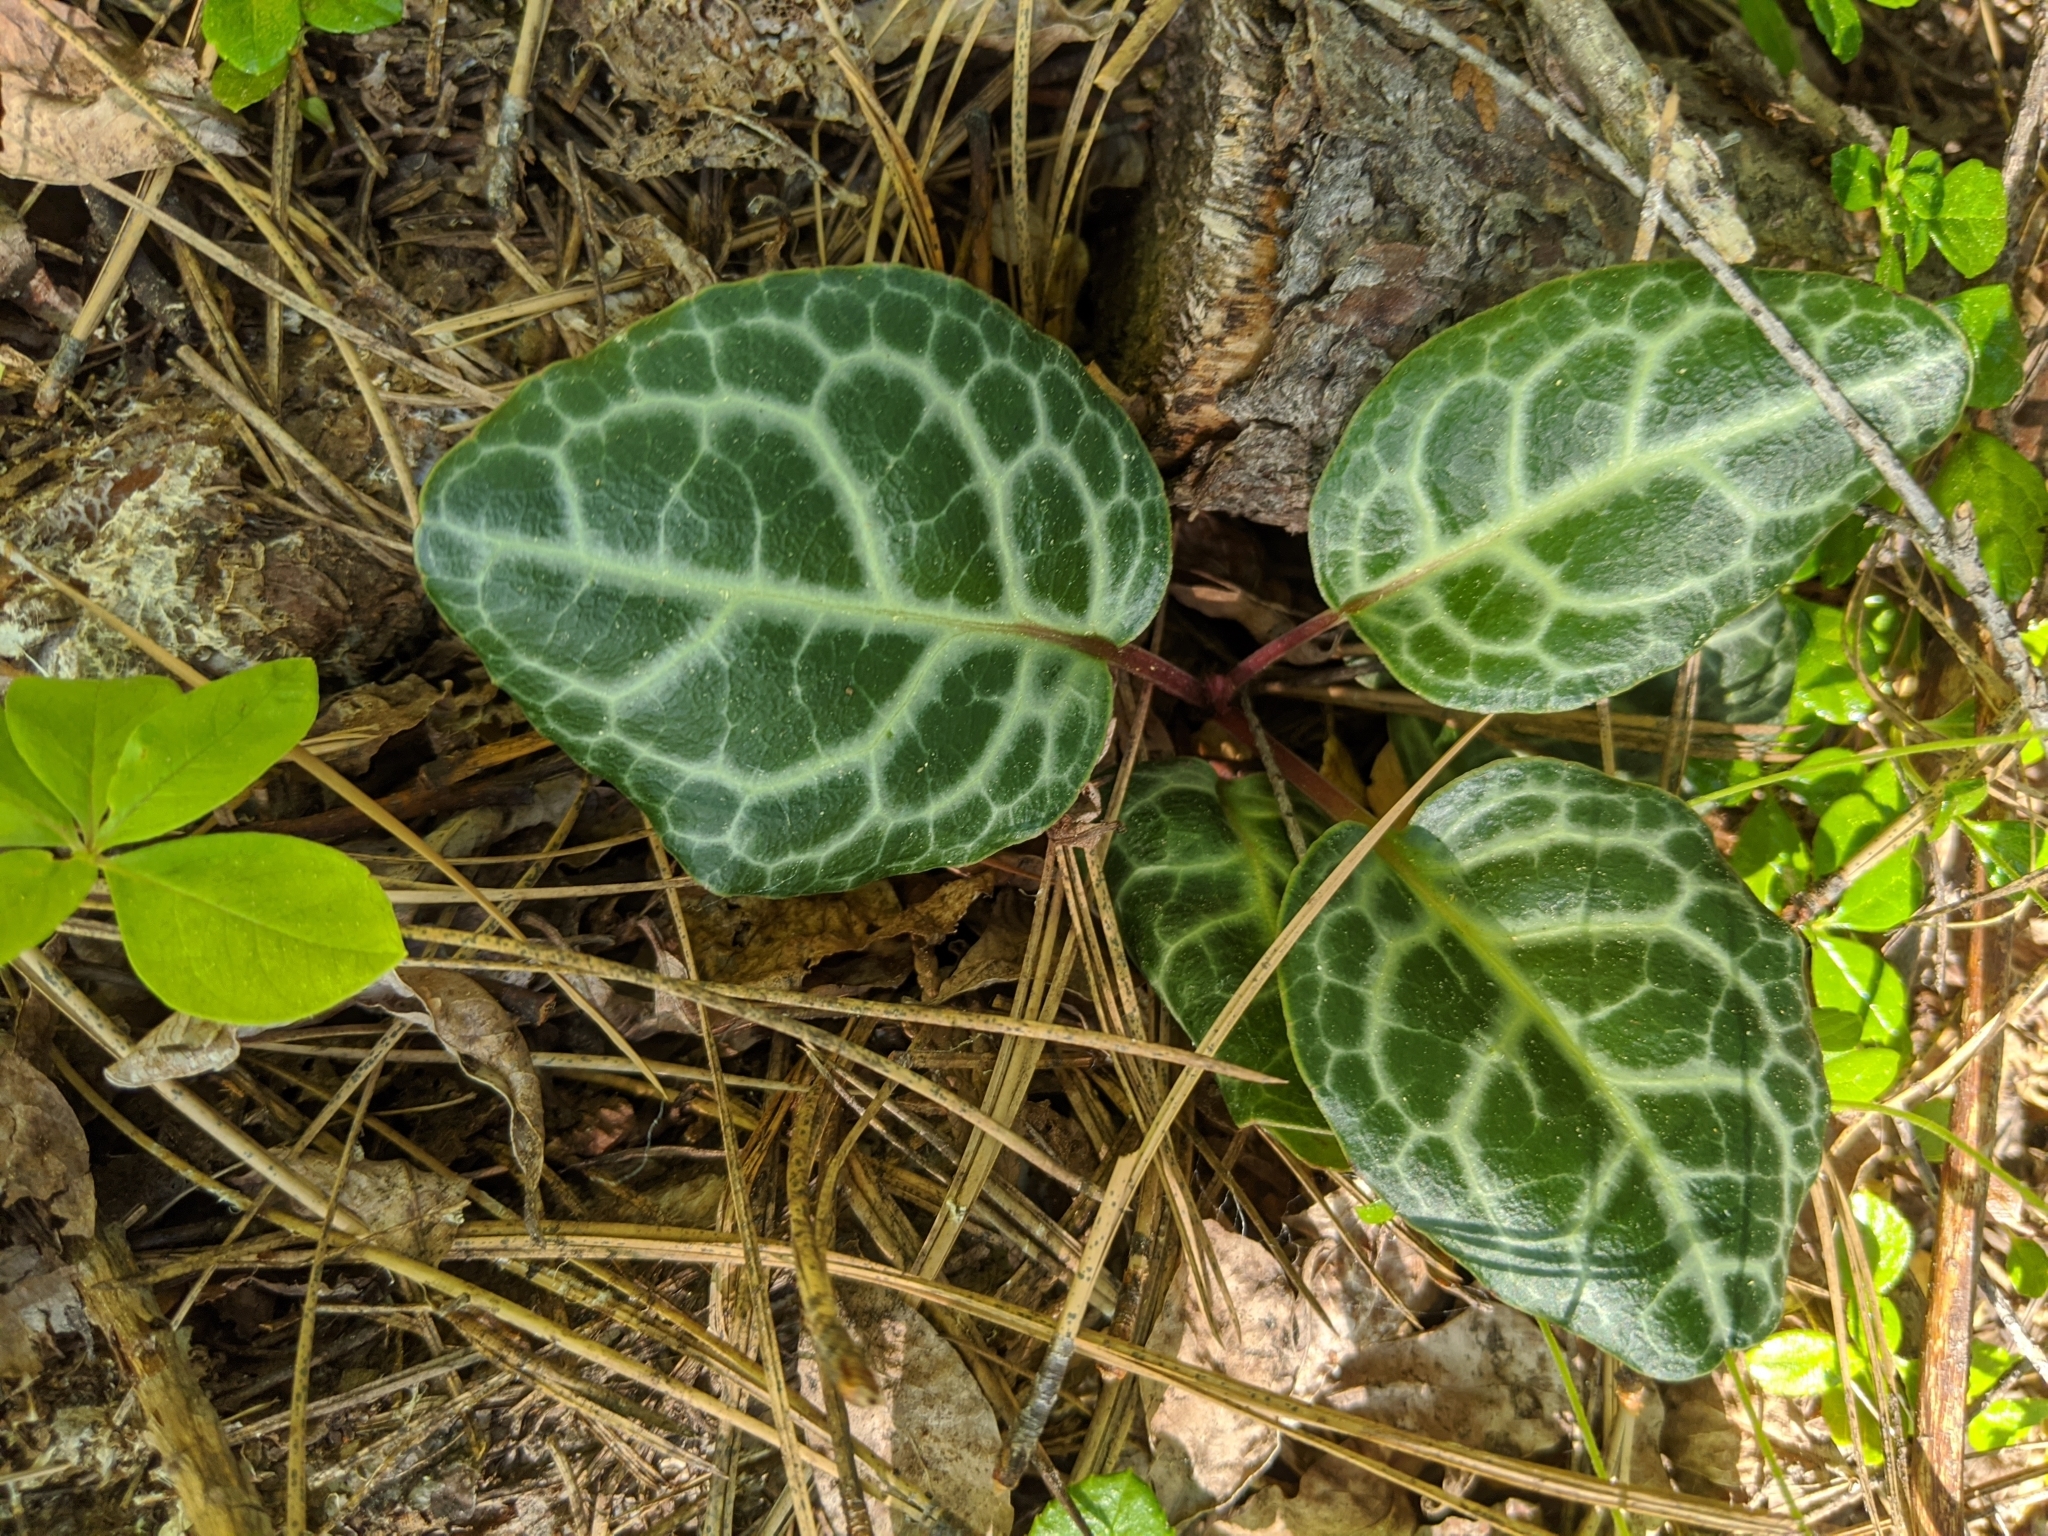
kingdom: Plantae
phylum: Tracheophyta
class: Magnoliopsida
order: Ericales
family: Ericaceae
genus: Pyrola
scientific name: Pyrola picta
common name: White-vein wintergreen
